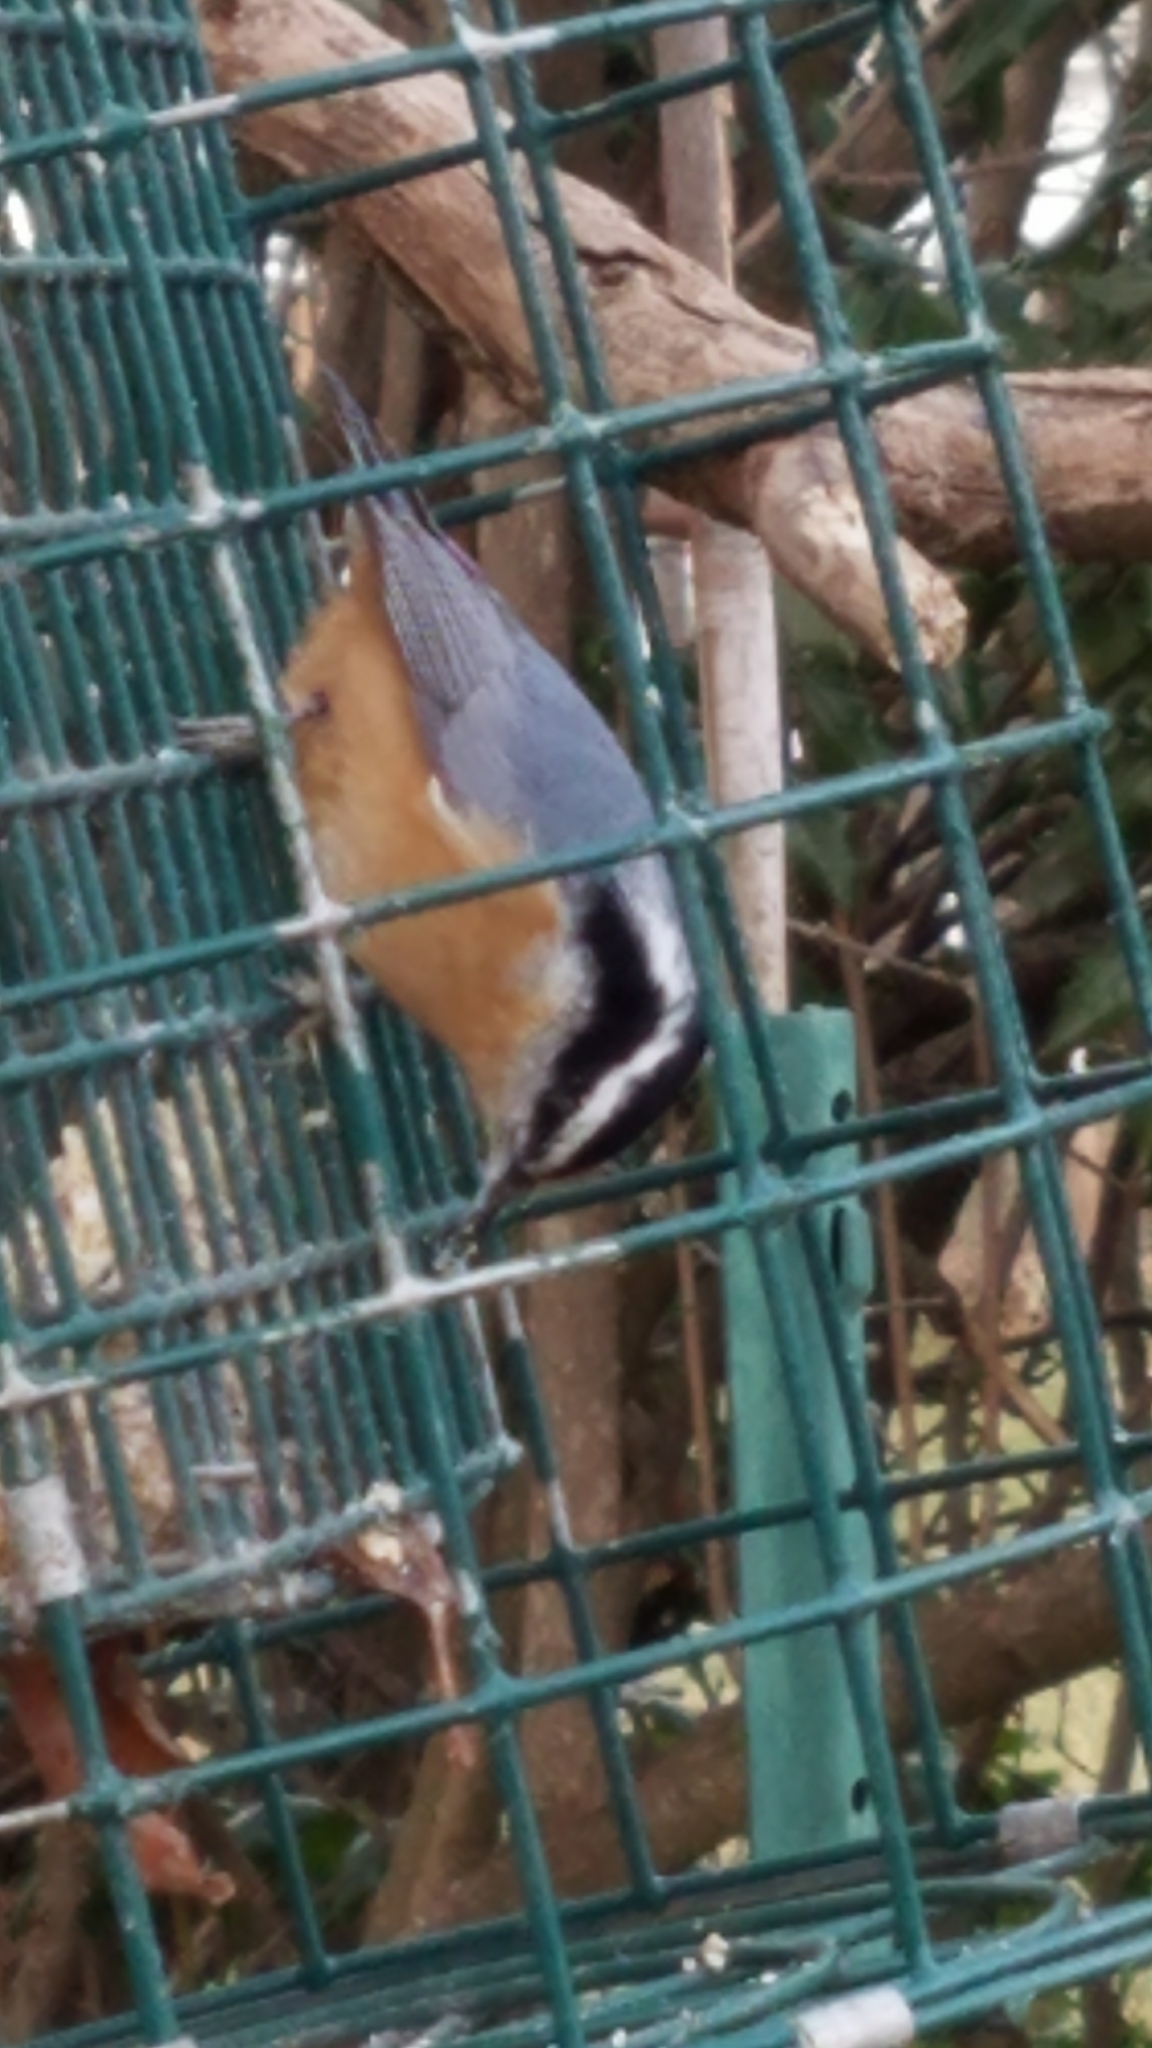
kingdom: Animalia
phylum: Chordata
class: Aves
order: Passeriformes
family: Sittidae
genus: Sitta
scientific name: Sitta canadensis
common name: Red-breasted nuthatch
